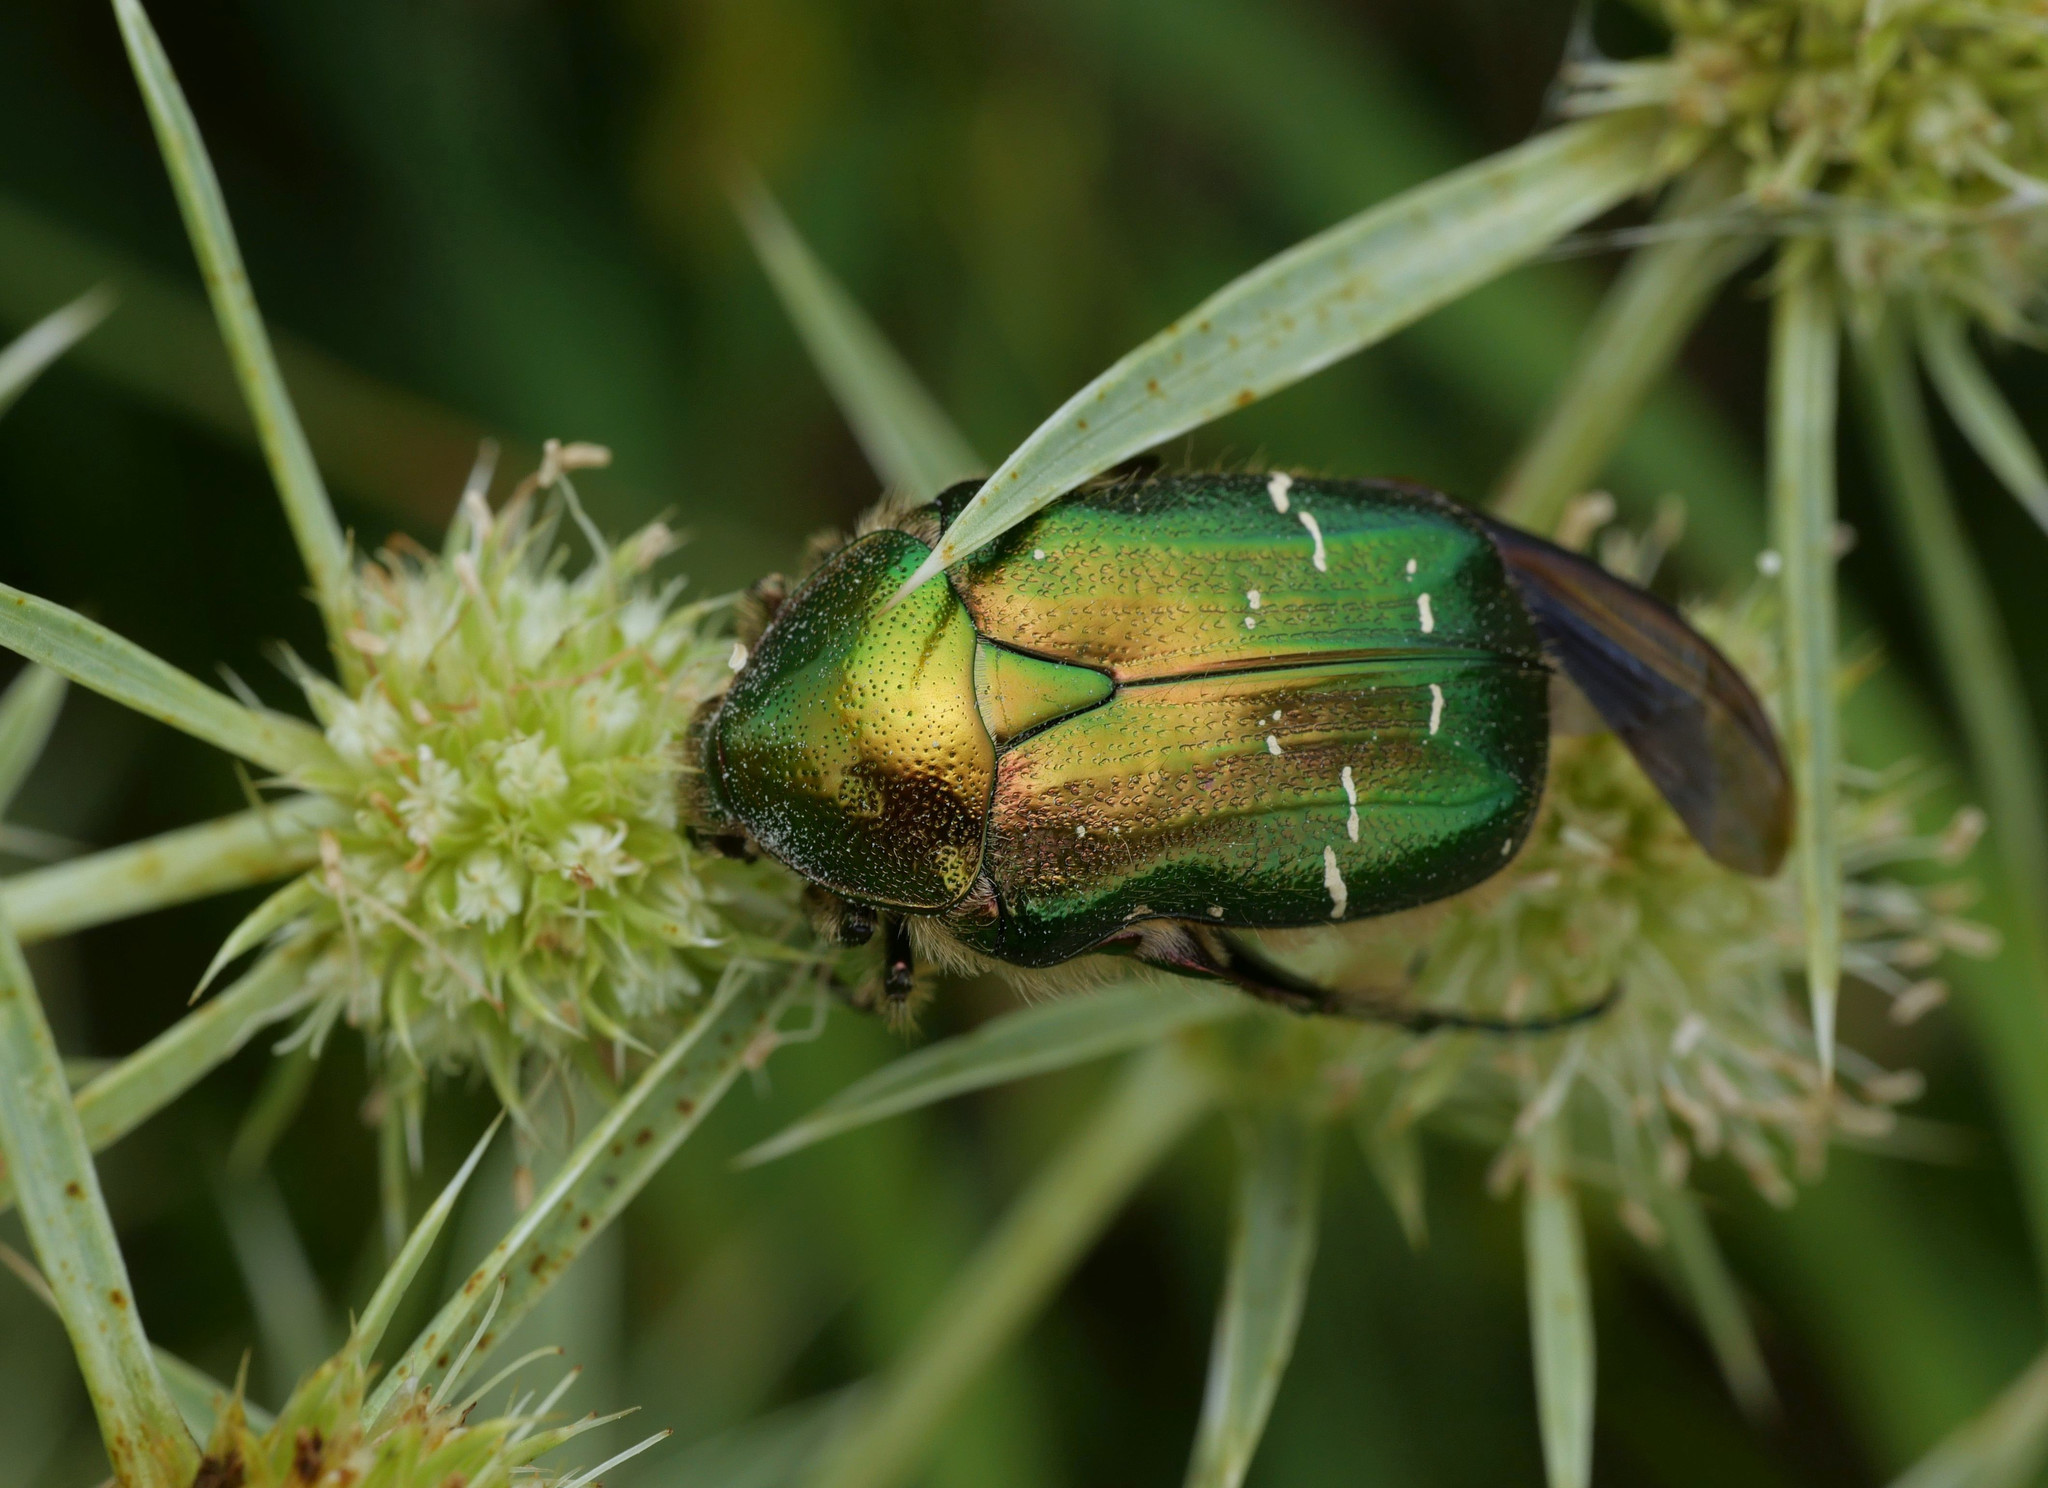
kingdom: Animalia
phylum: Arthropoda
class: Insecta
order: Coleoptera
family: Scarabaeidae
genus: Cetonia
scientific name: Cetonia aurata
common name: Rose chafer
